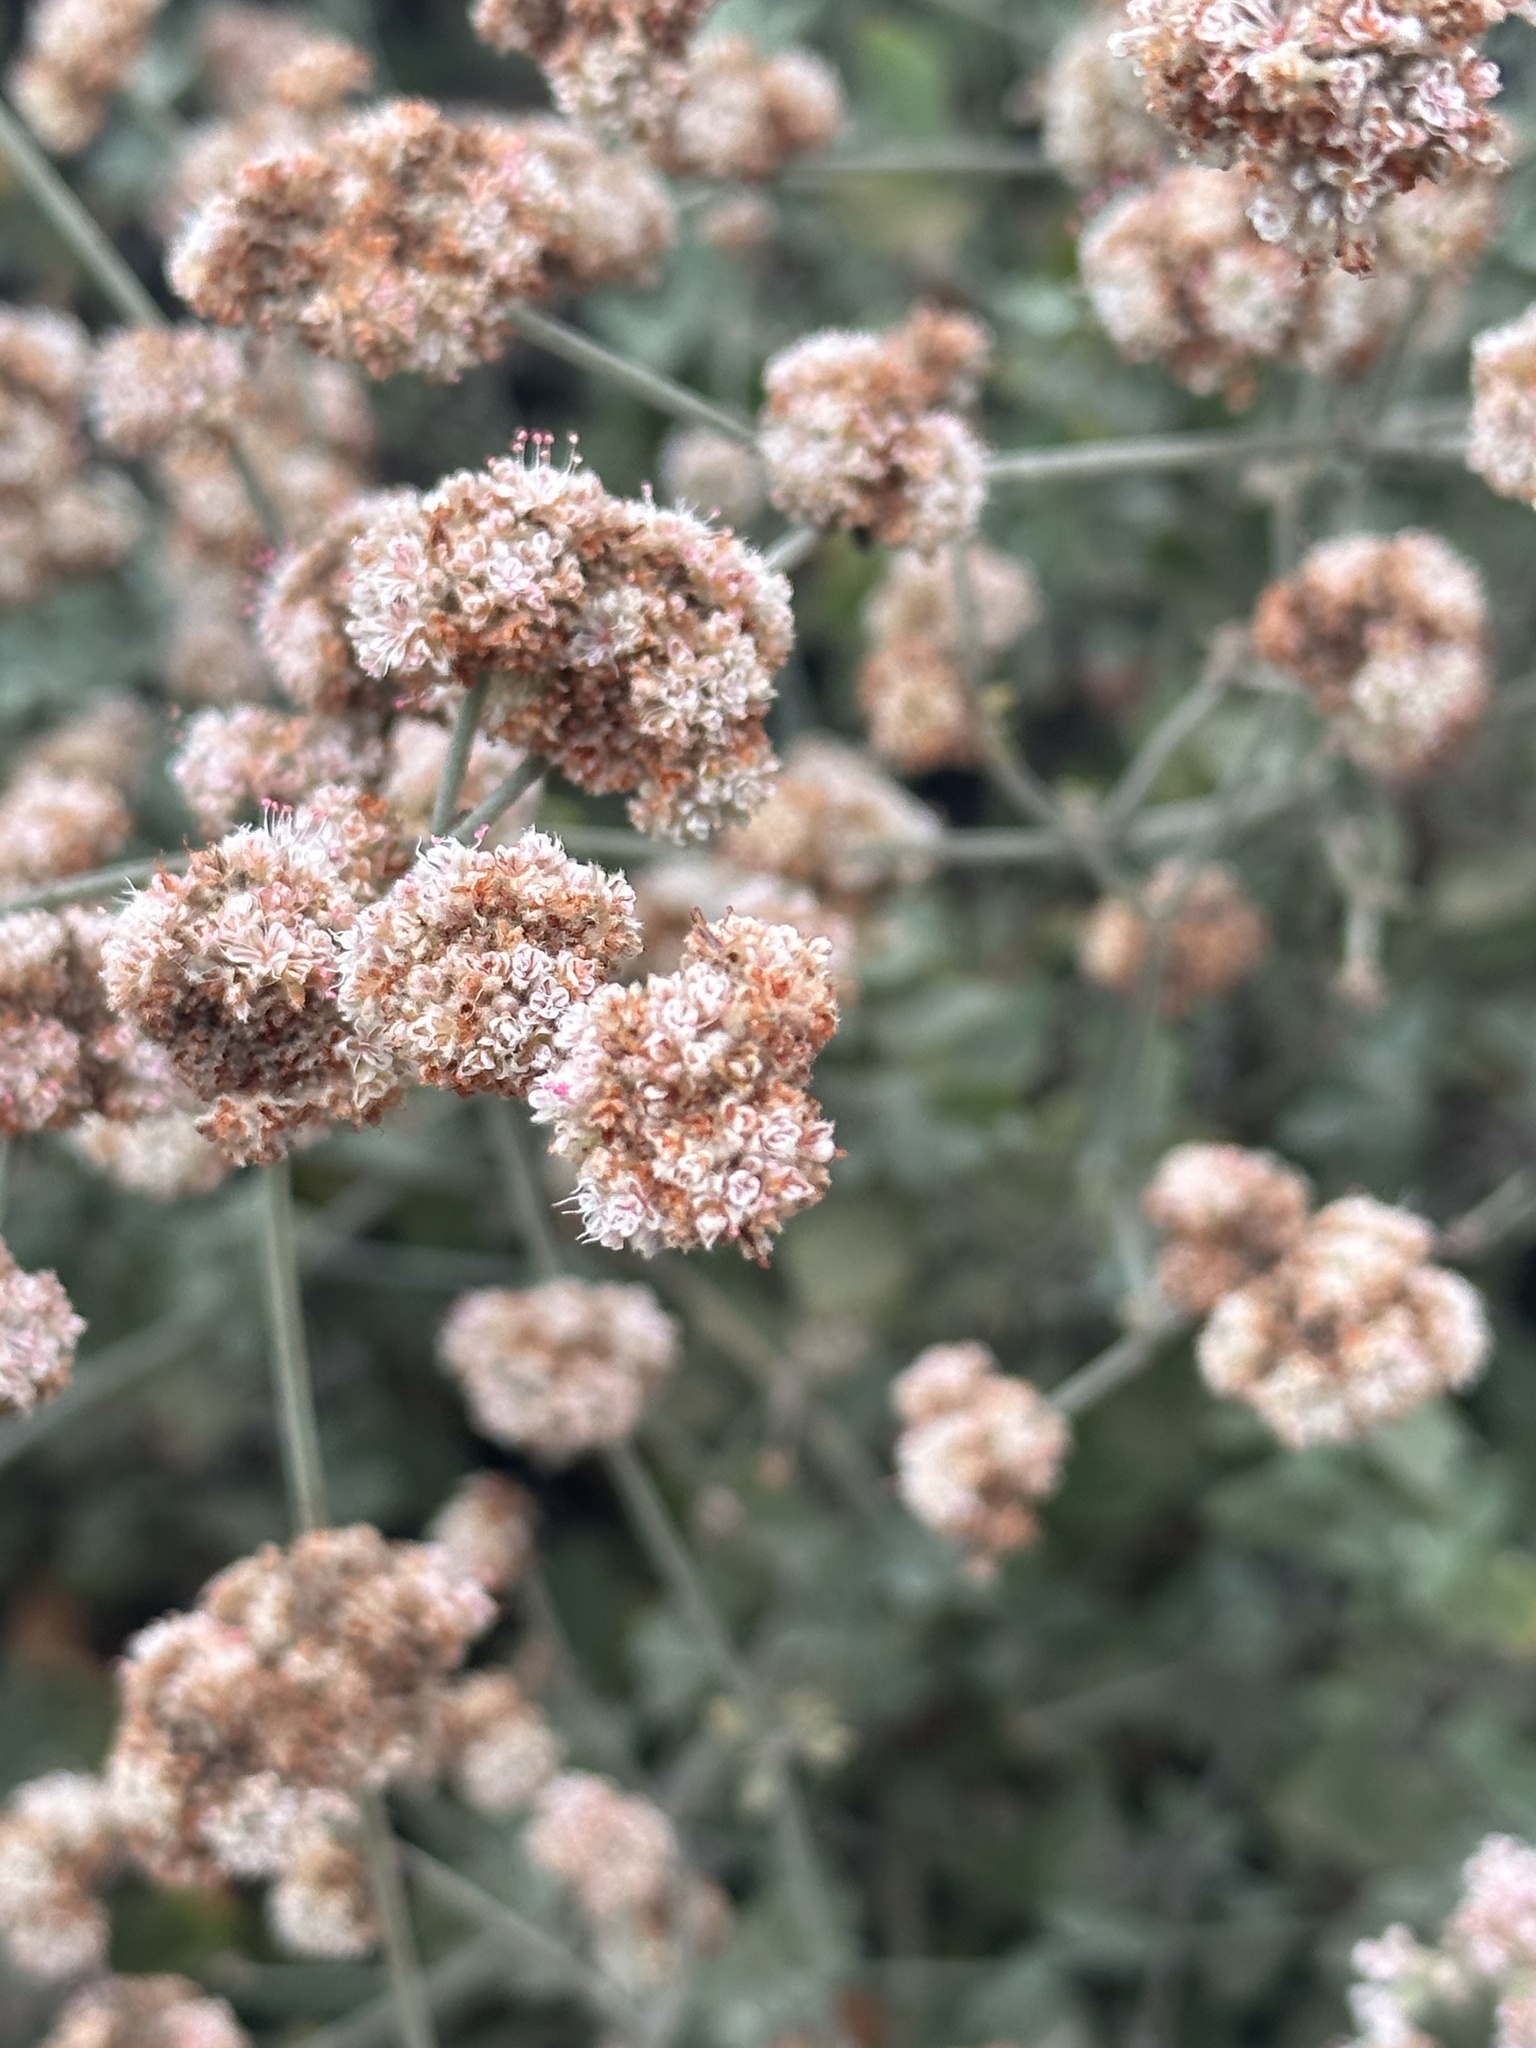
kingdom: Plantae
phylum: Tracheophyta
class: Magnoliopsida
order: Caryophyllales
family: Polygonaceae
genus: Eriogonum
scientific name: Eriogonum cinereum
